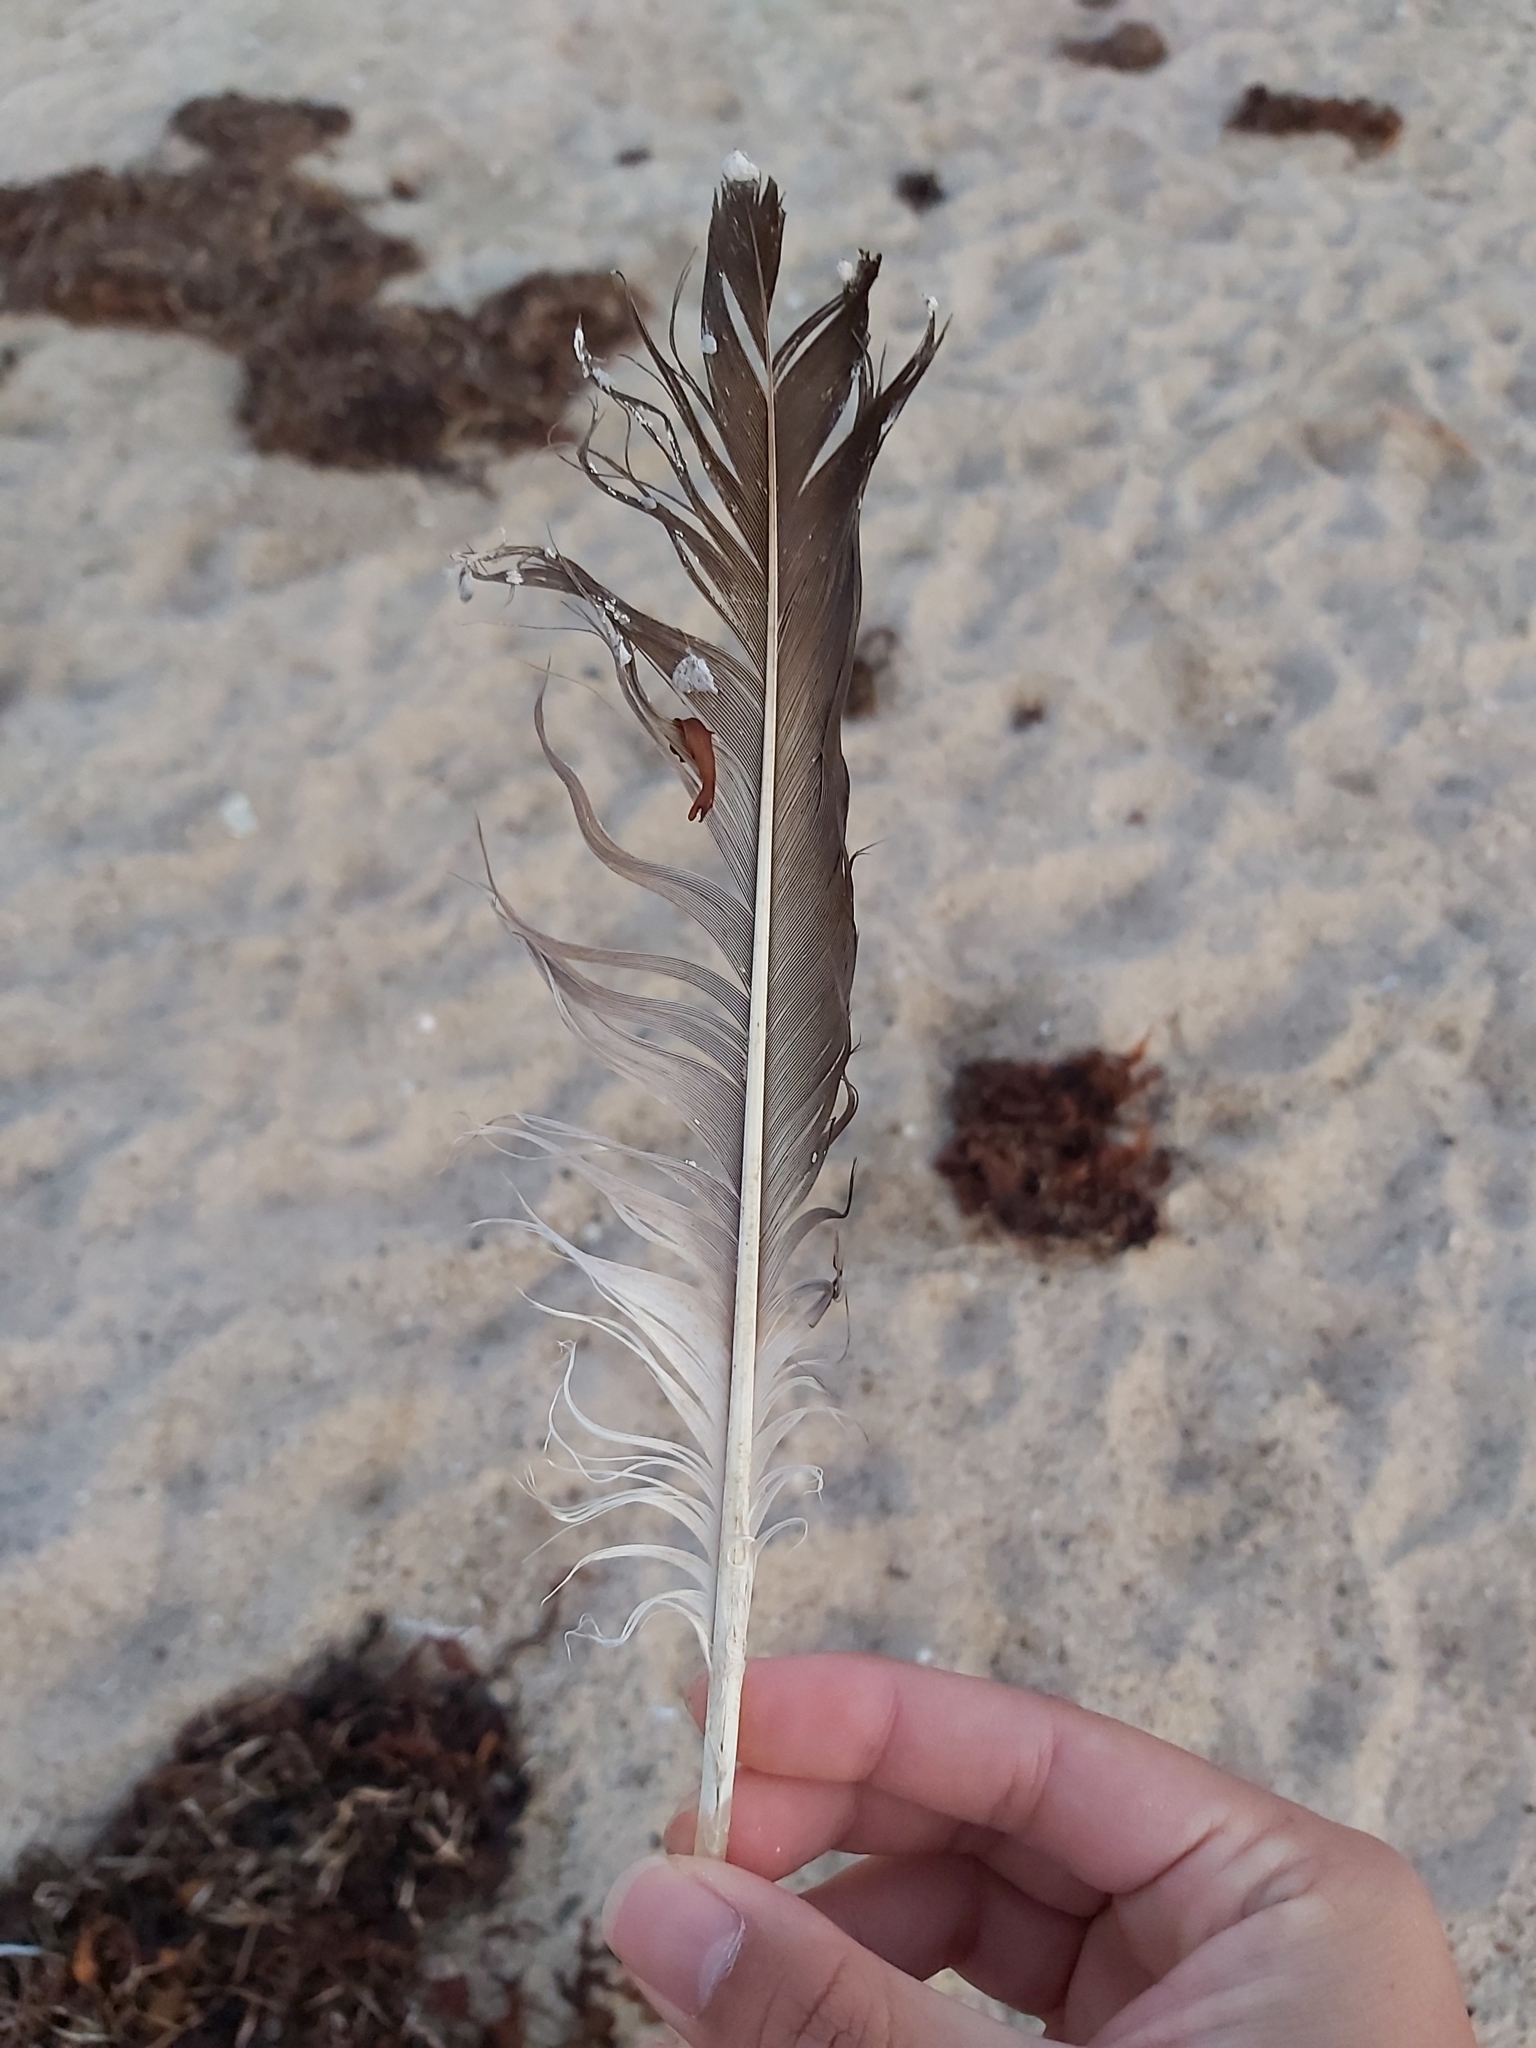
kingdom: Animalia
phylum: Chordata
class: Aves
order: Suliformes
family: Sulidae
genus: Morus
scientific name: Morus serrator
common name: Australasian gannet
